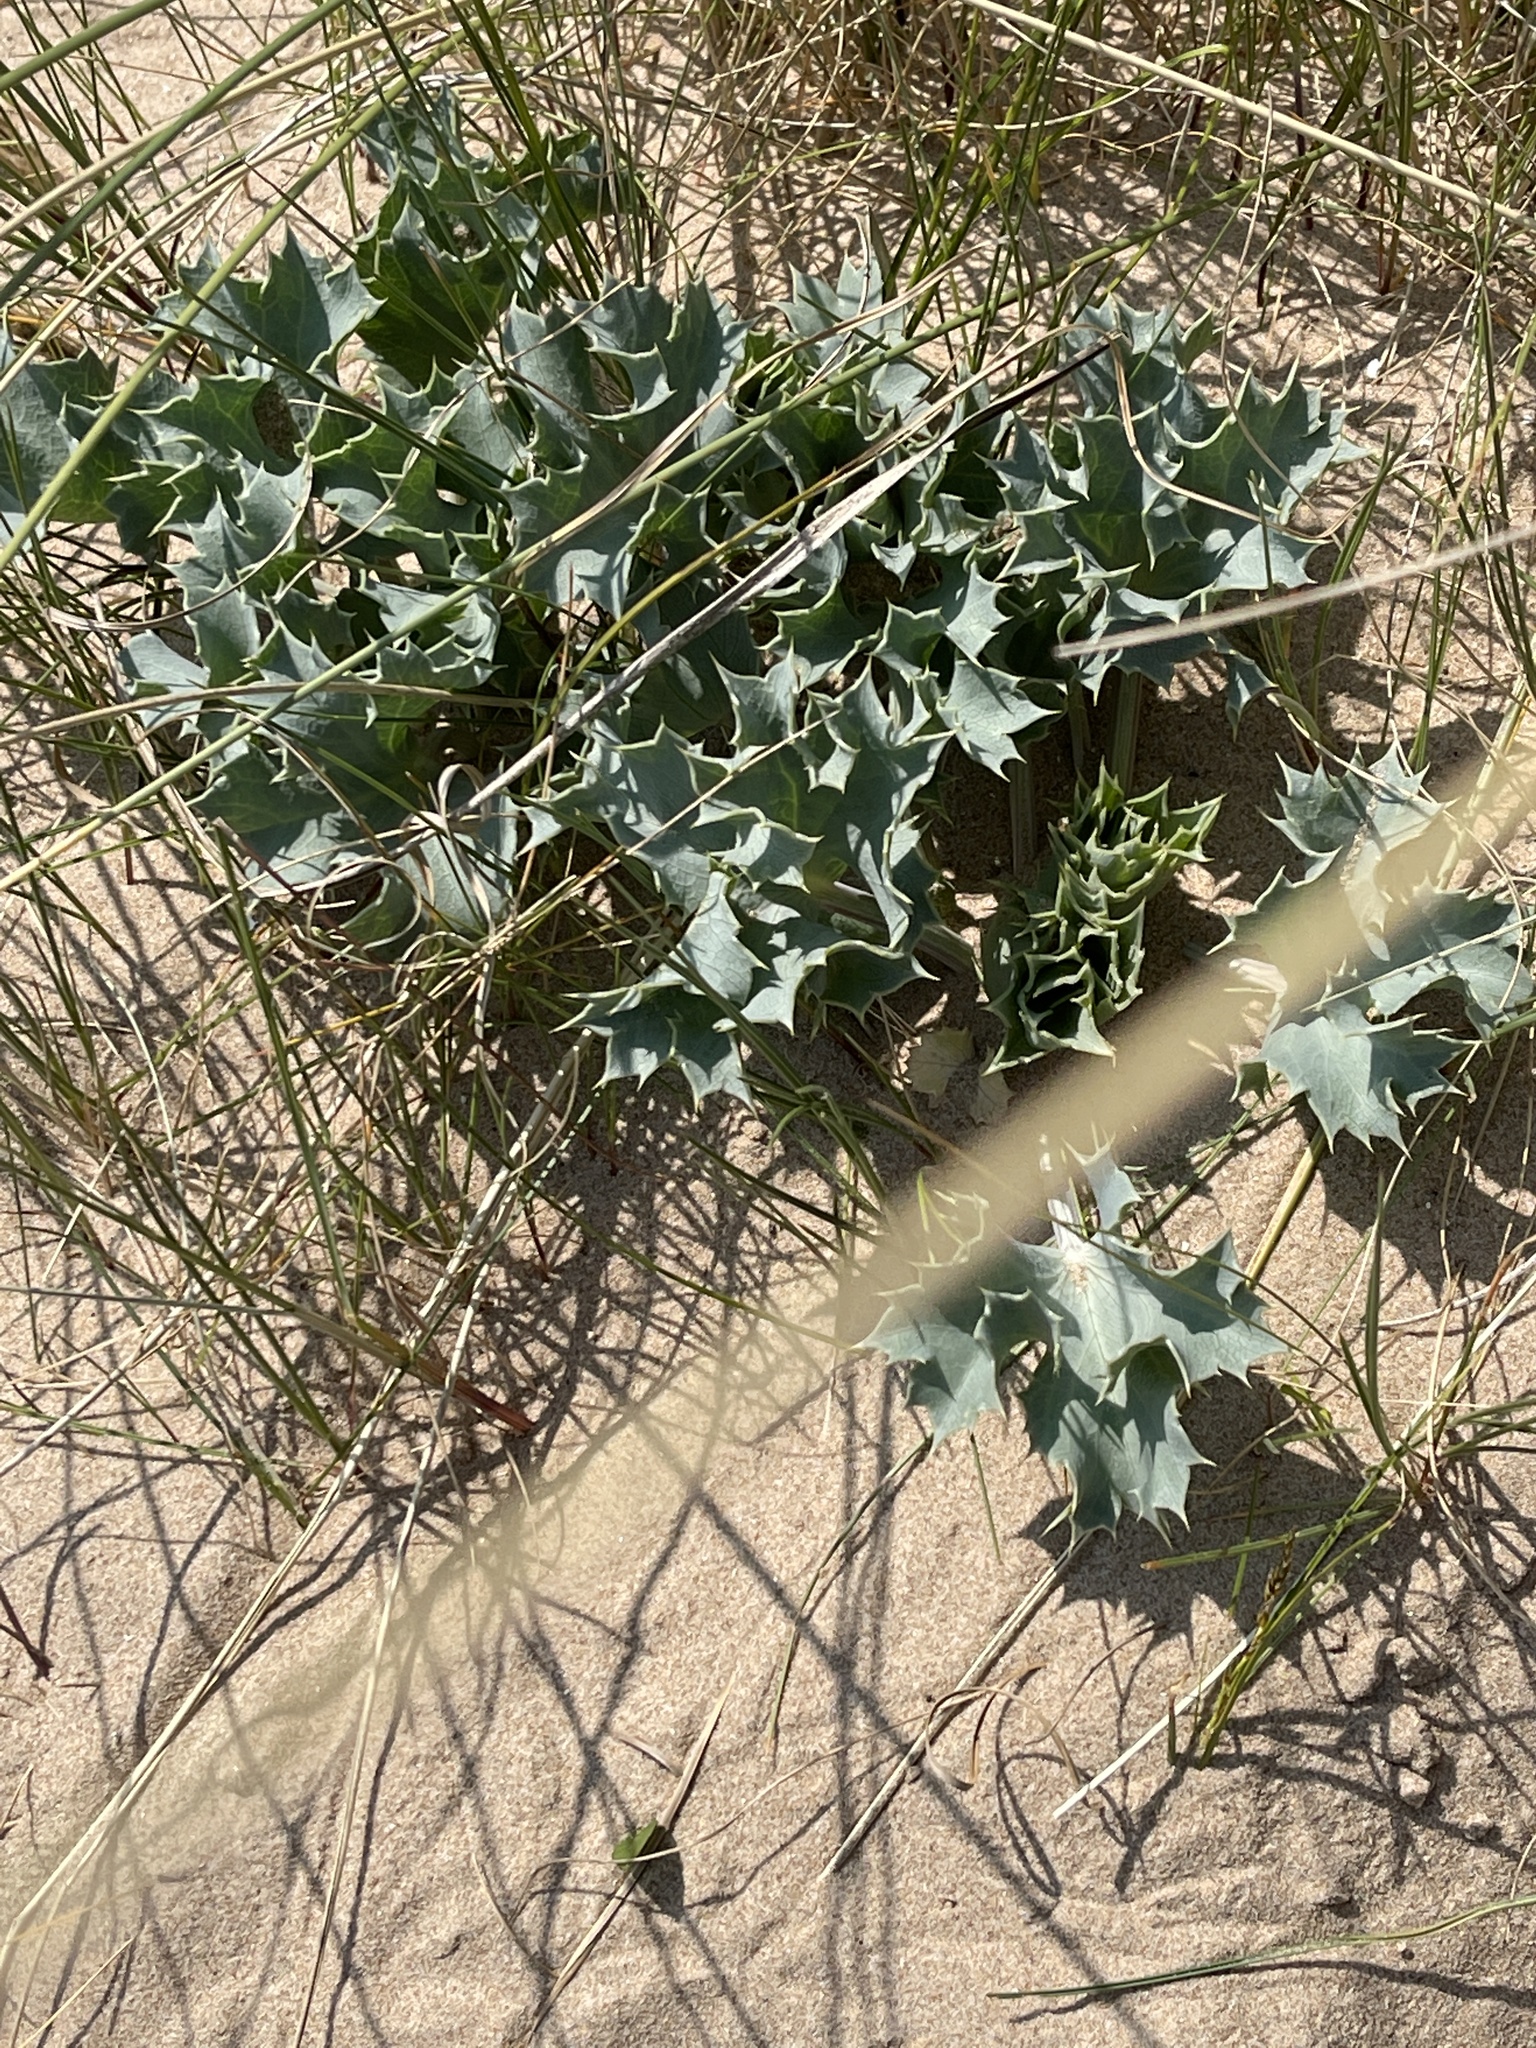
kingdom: Plantae
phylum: Tracheophyta
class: Magnoliopsida
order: Apiales
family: Apiaceae
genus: Eryngium
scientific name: Eryngium maritimum
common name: Sea-holly
